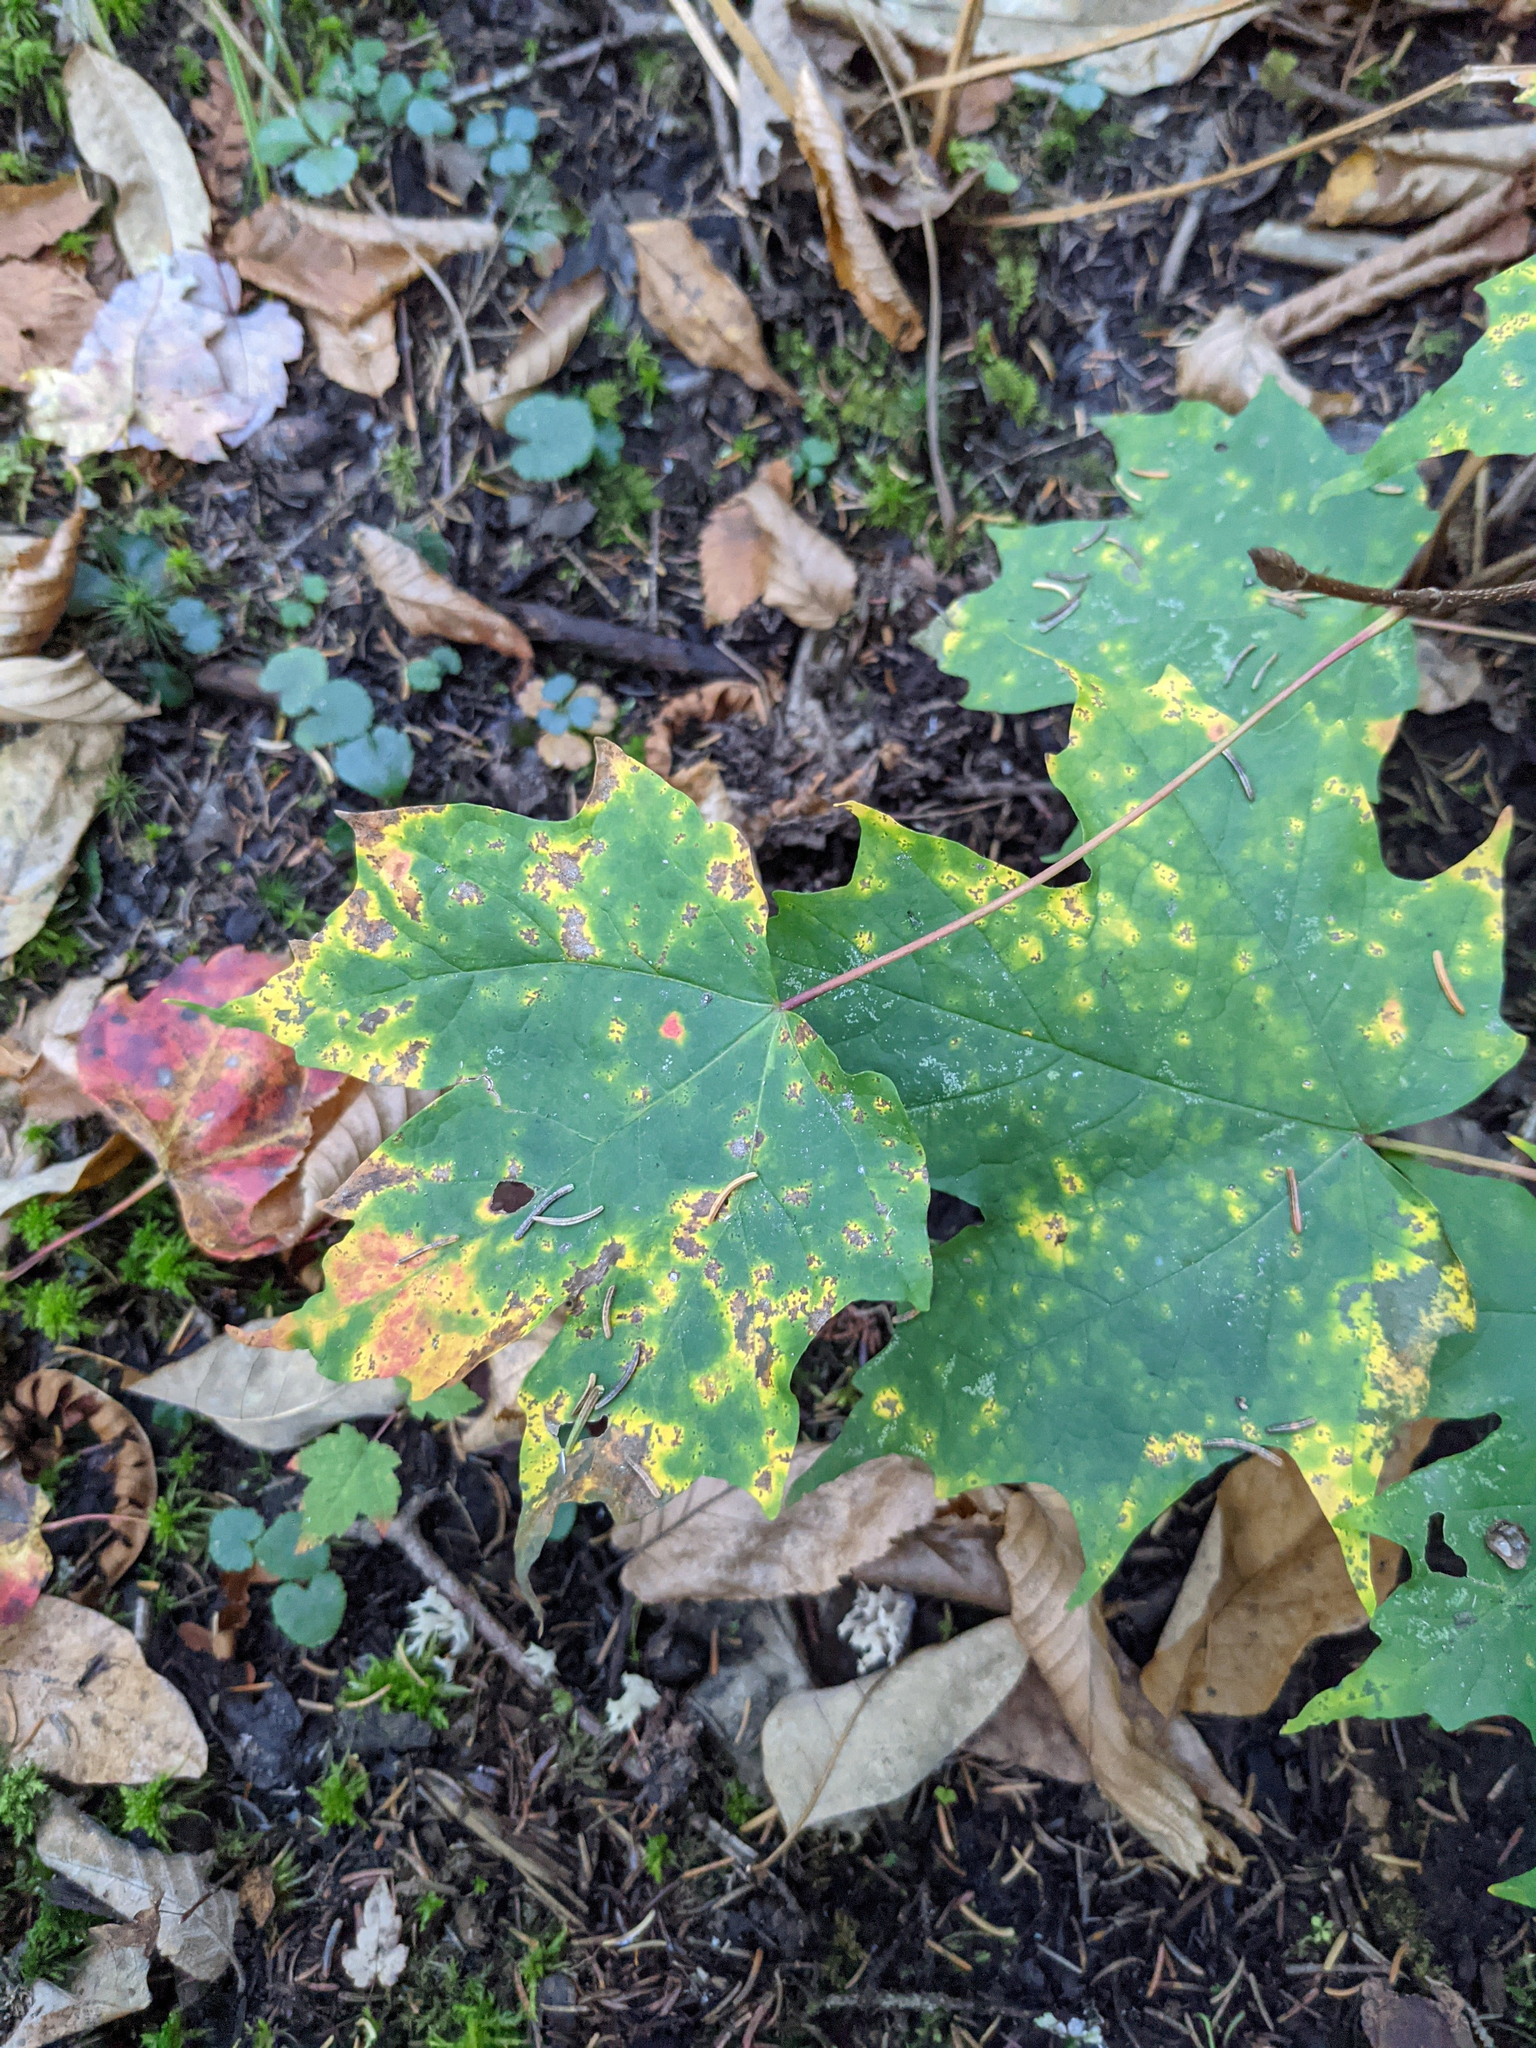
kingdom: Plantae
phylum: Tracheophyta
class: Magnoliopsida
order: Sapindales
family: Sapindaceae
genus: Acer
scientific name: Acer saccharum
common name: Sugar maple
